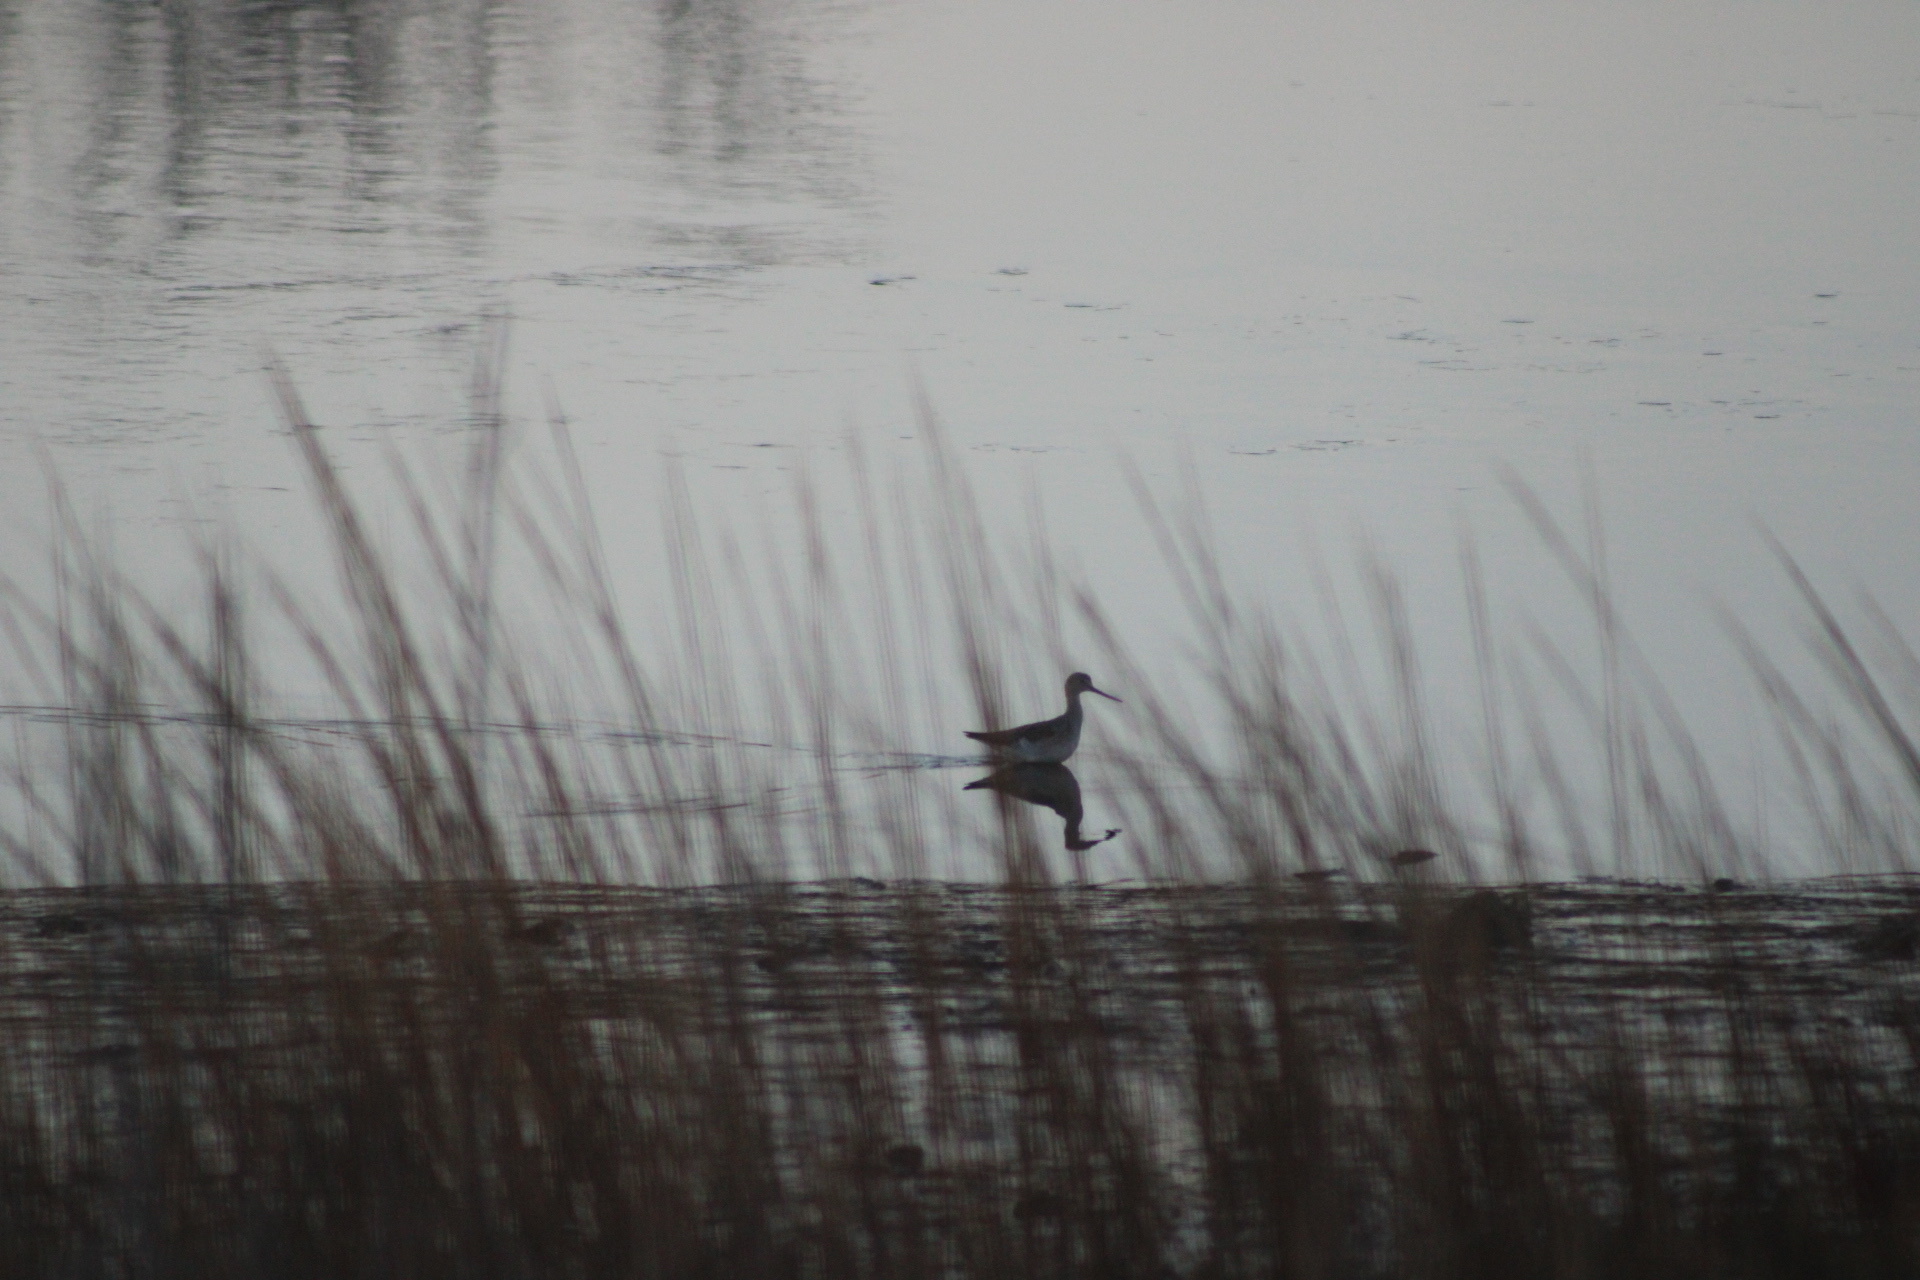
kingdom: Animalia
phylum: Chordata
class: Aves
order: Charadriiformes
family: Scolopacidae
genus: Tringa
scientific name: Tringa melanoleuca
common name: Greater yellowlegs
